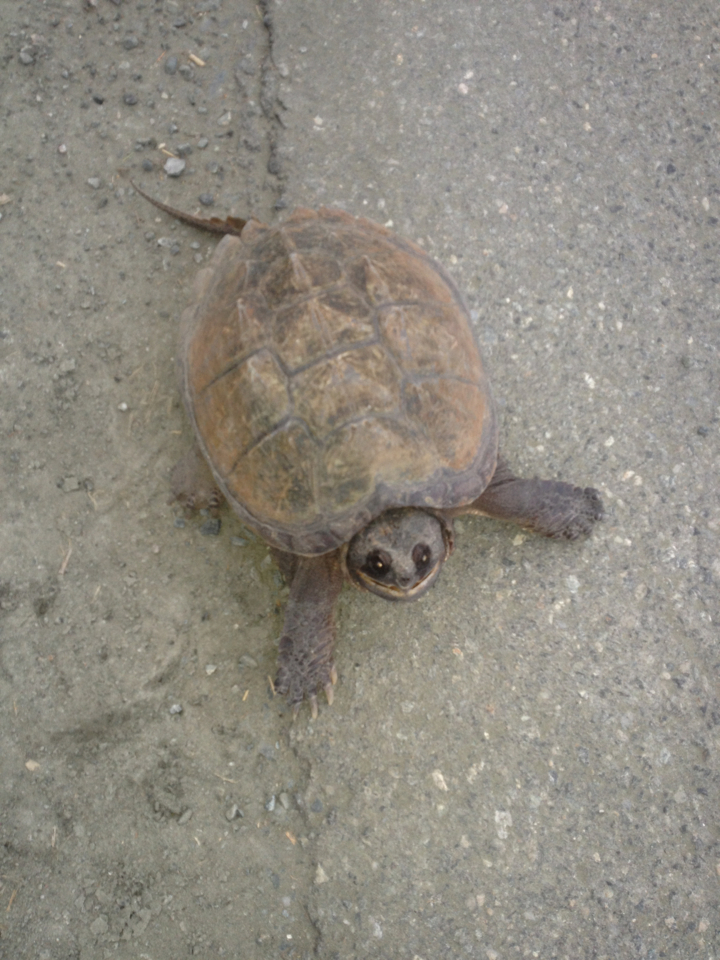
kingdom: Animalia
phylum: Chordata
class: Testudines
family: Chelydridae
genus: Chelydra
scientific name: Chelydra serpentina
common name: Common snapping turtle
